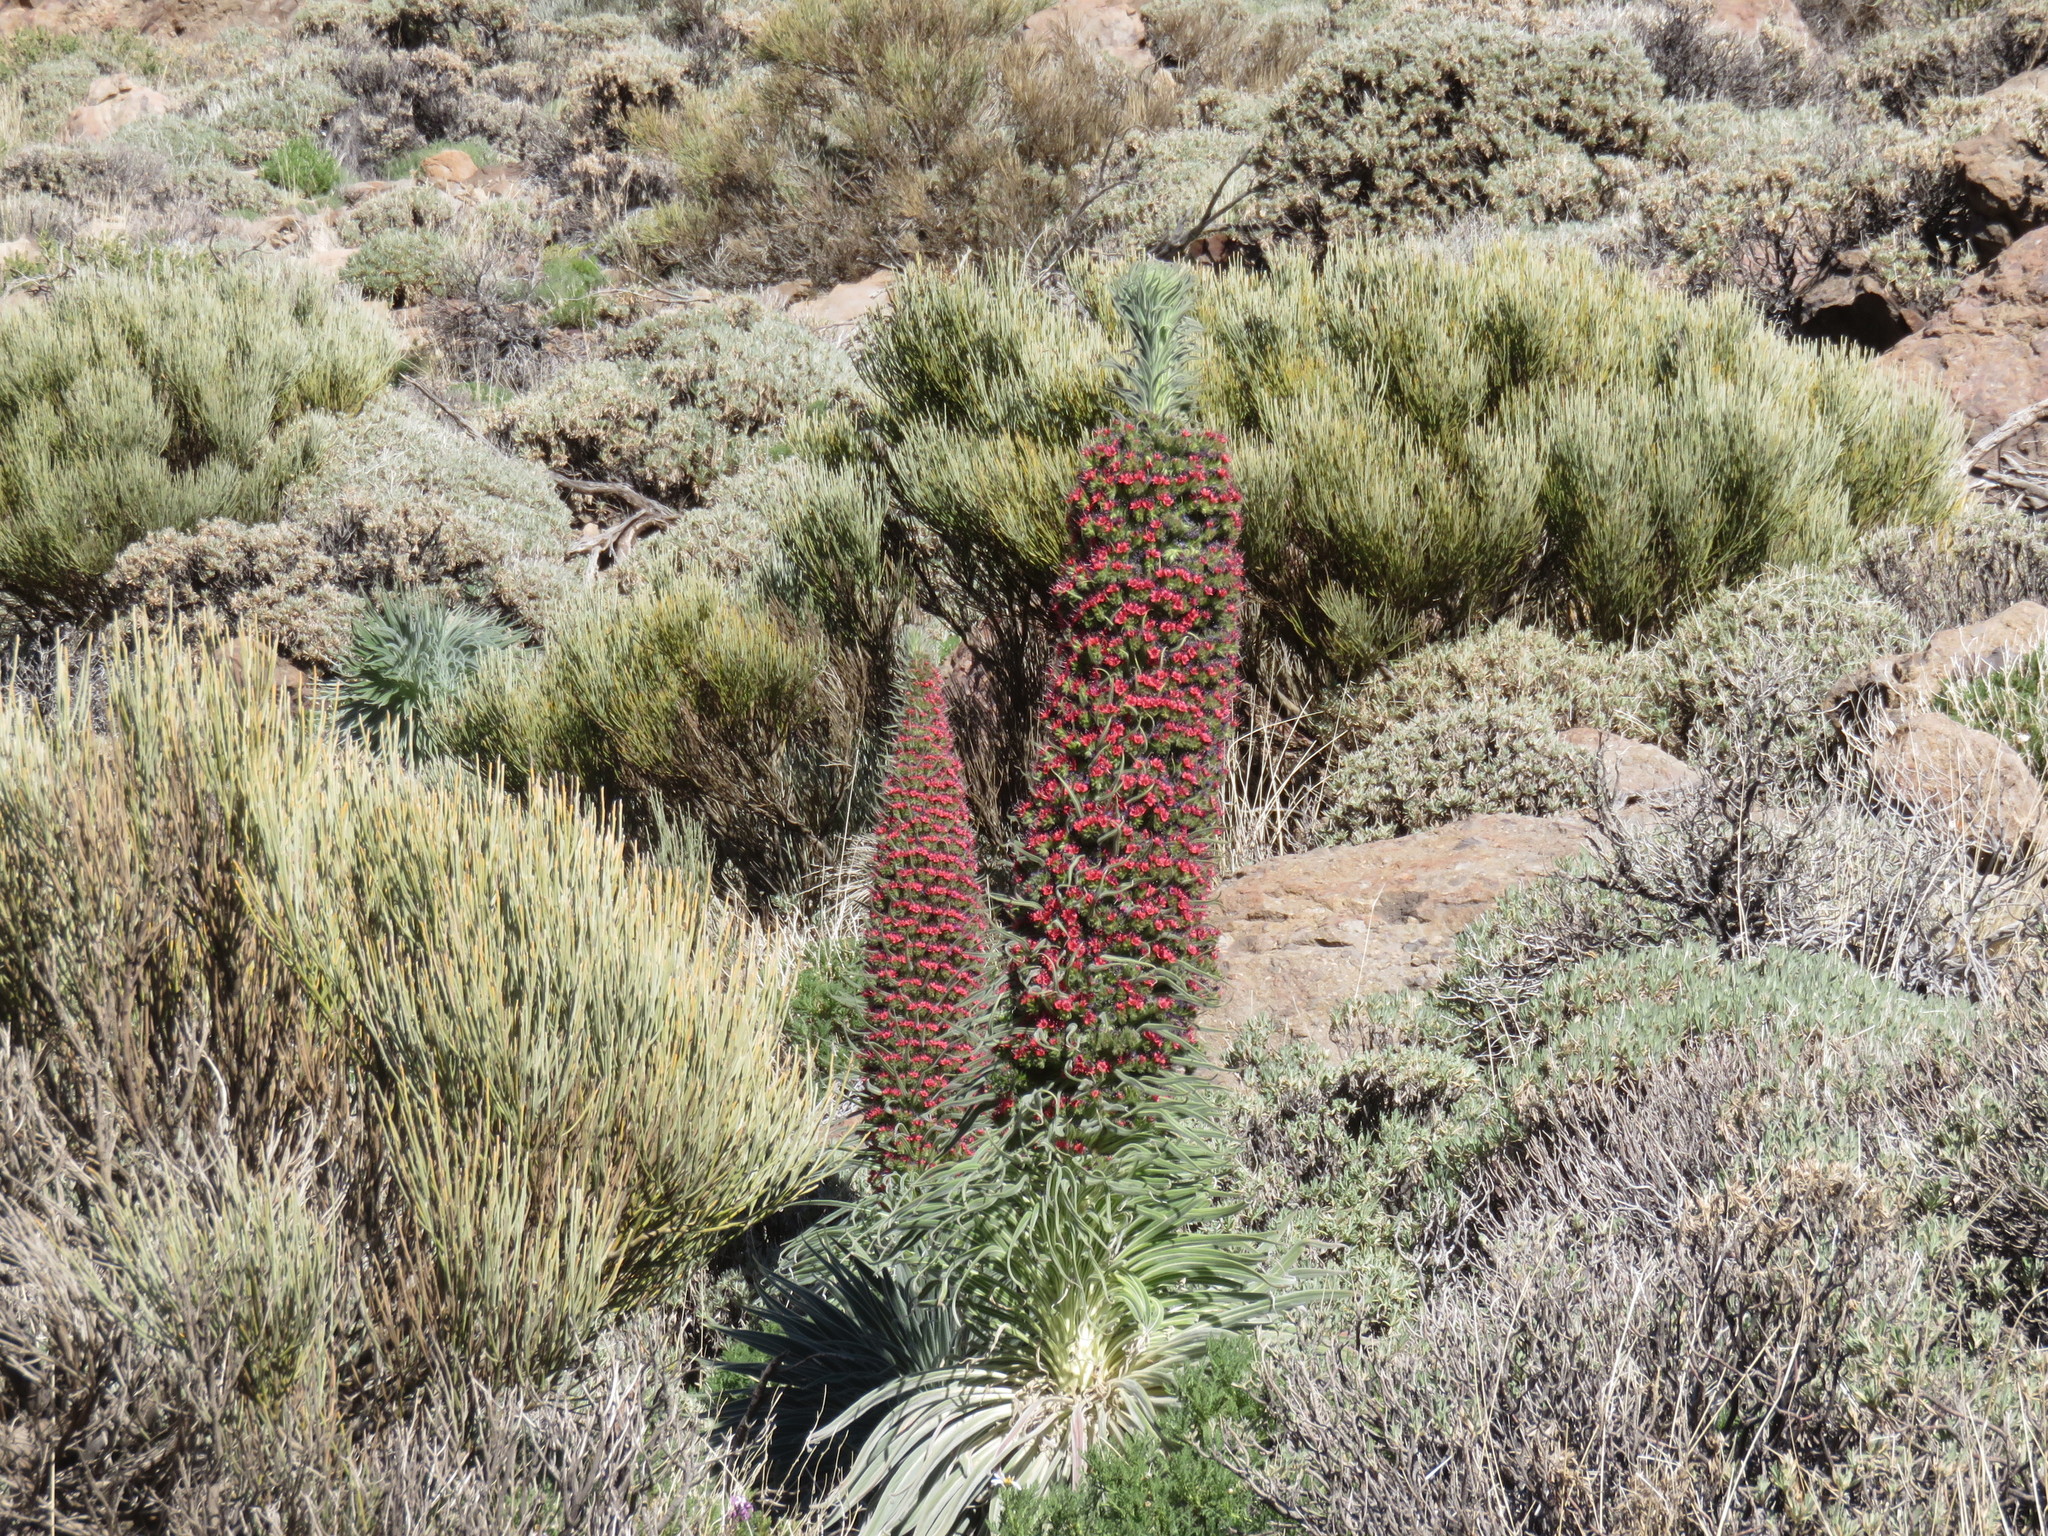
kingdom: Plantae
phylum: Tracheophyta
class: Magnoliopsida
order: Boraginales
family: Boraginaceae
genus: Echium
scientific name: Echium wildpretii
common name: Tower-of-jewels
